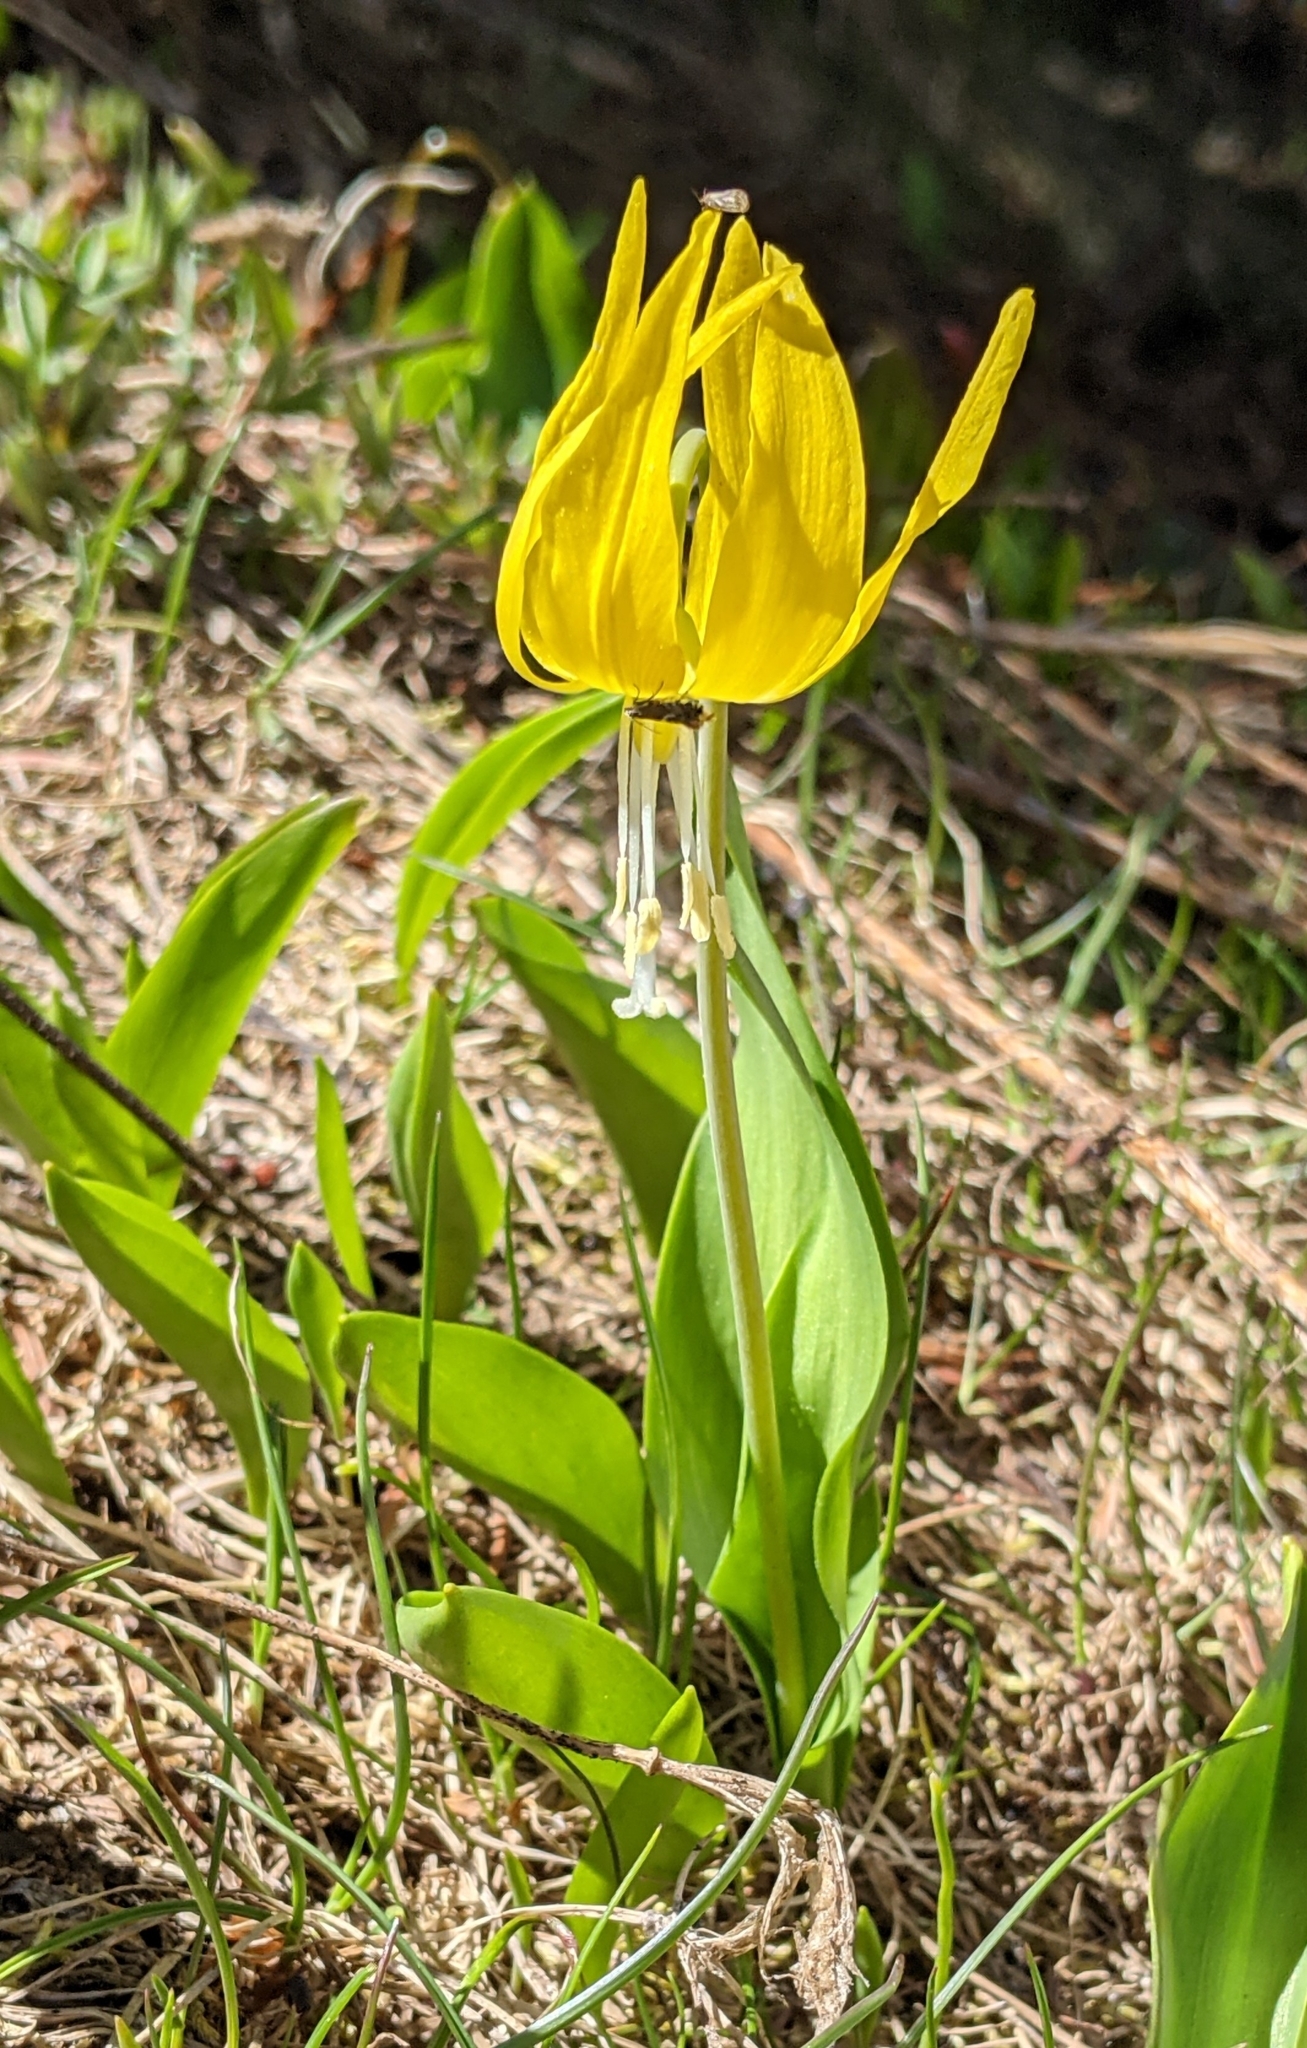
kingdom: Plantae
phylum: Tracheophyta
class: Liliopsida
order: Liliales
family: Liliaceae
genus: Erythronium
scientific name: Erythronium grandiflorum
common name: Avalanche-lily
